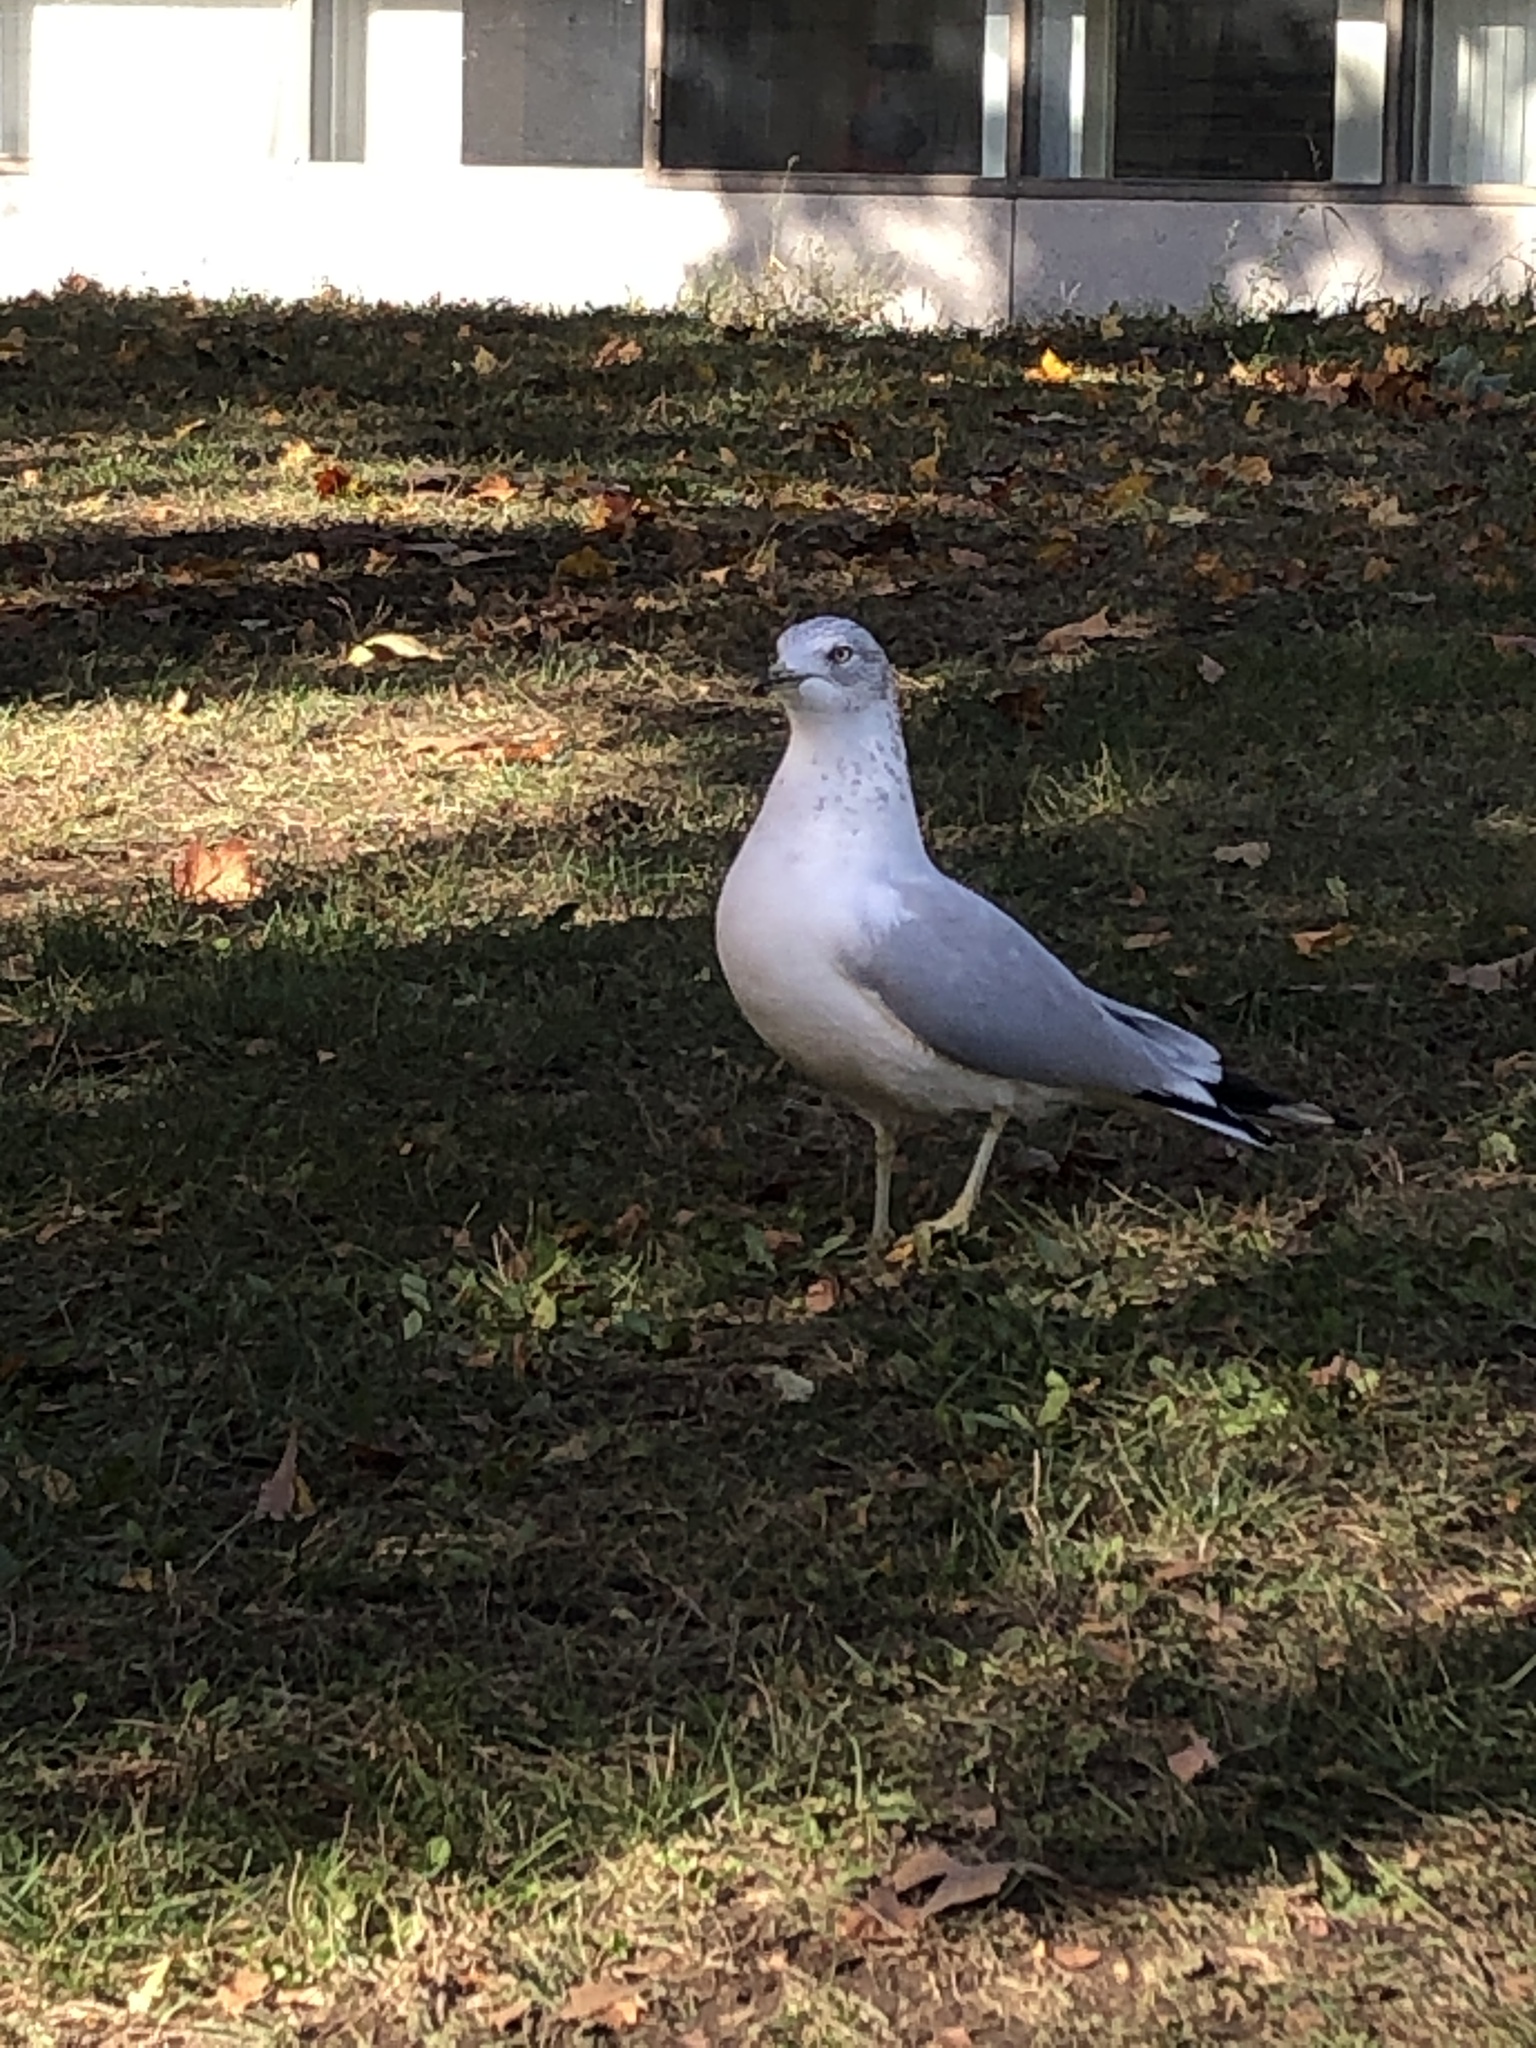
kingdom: Animalia
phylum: Chordata
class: Aves
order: Charadriiformes
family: Laridae
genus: Larus
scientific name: Larus delawarensis
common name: Ring-billed gull
